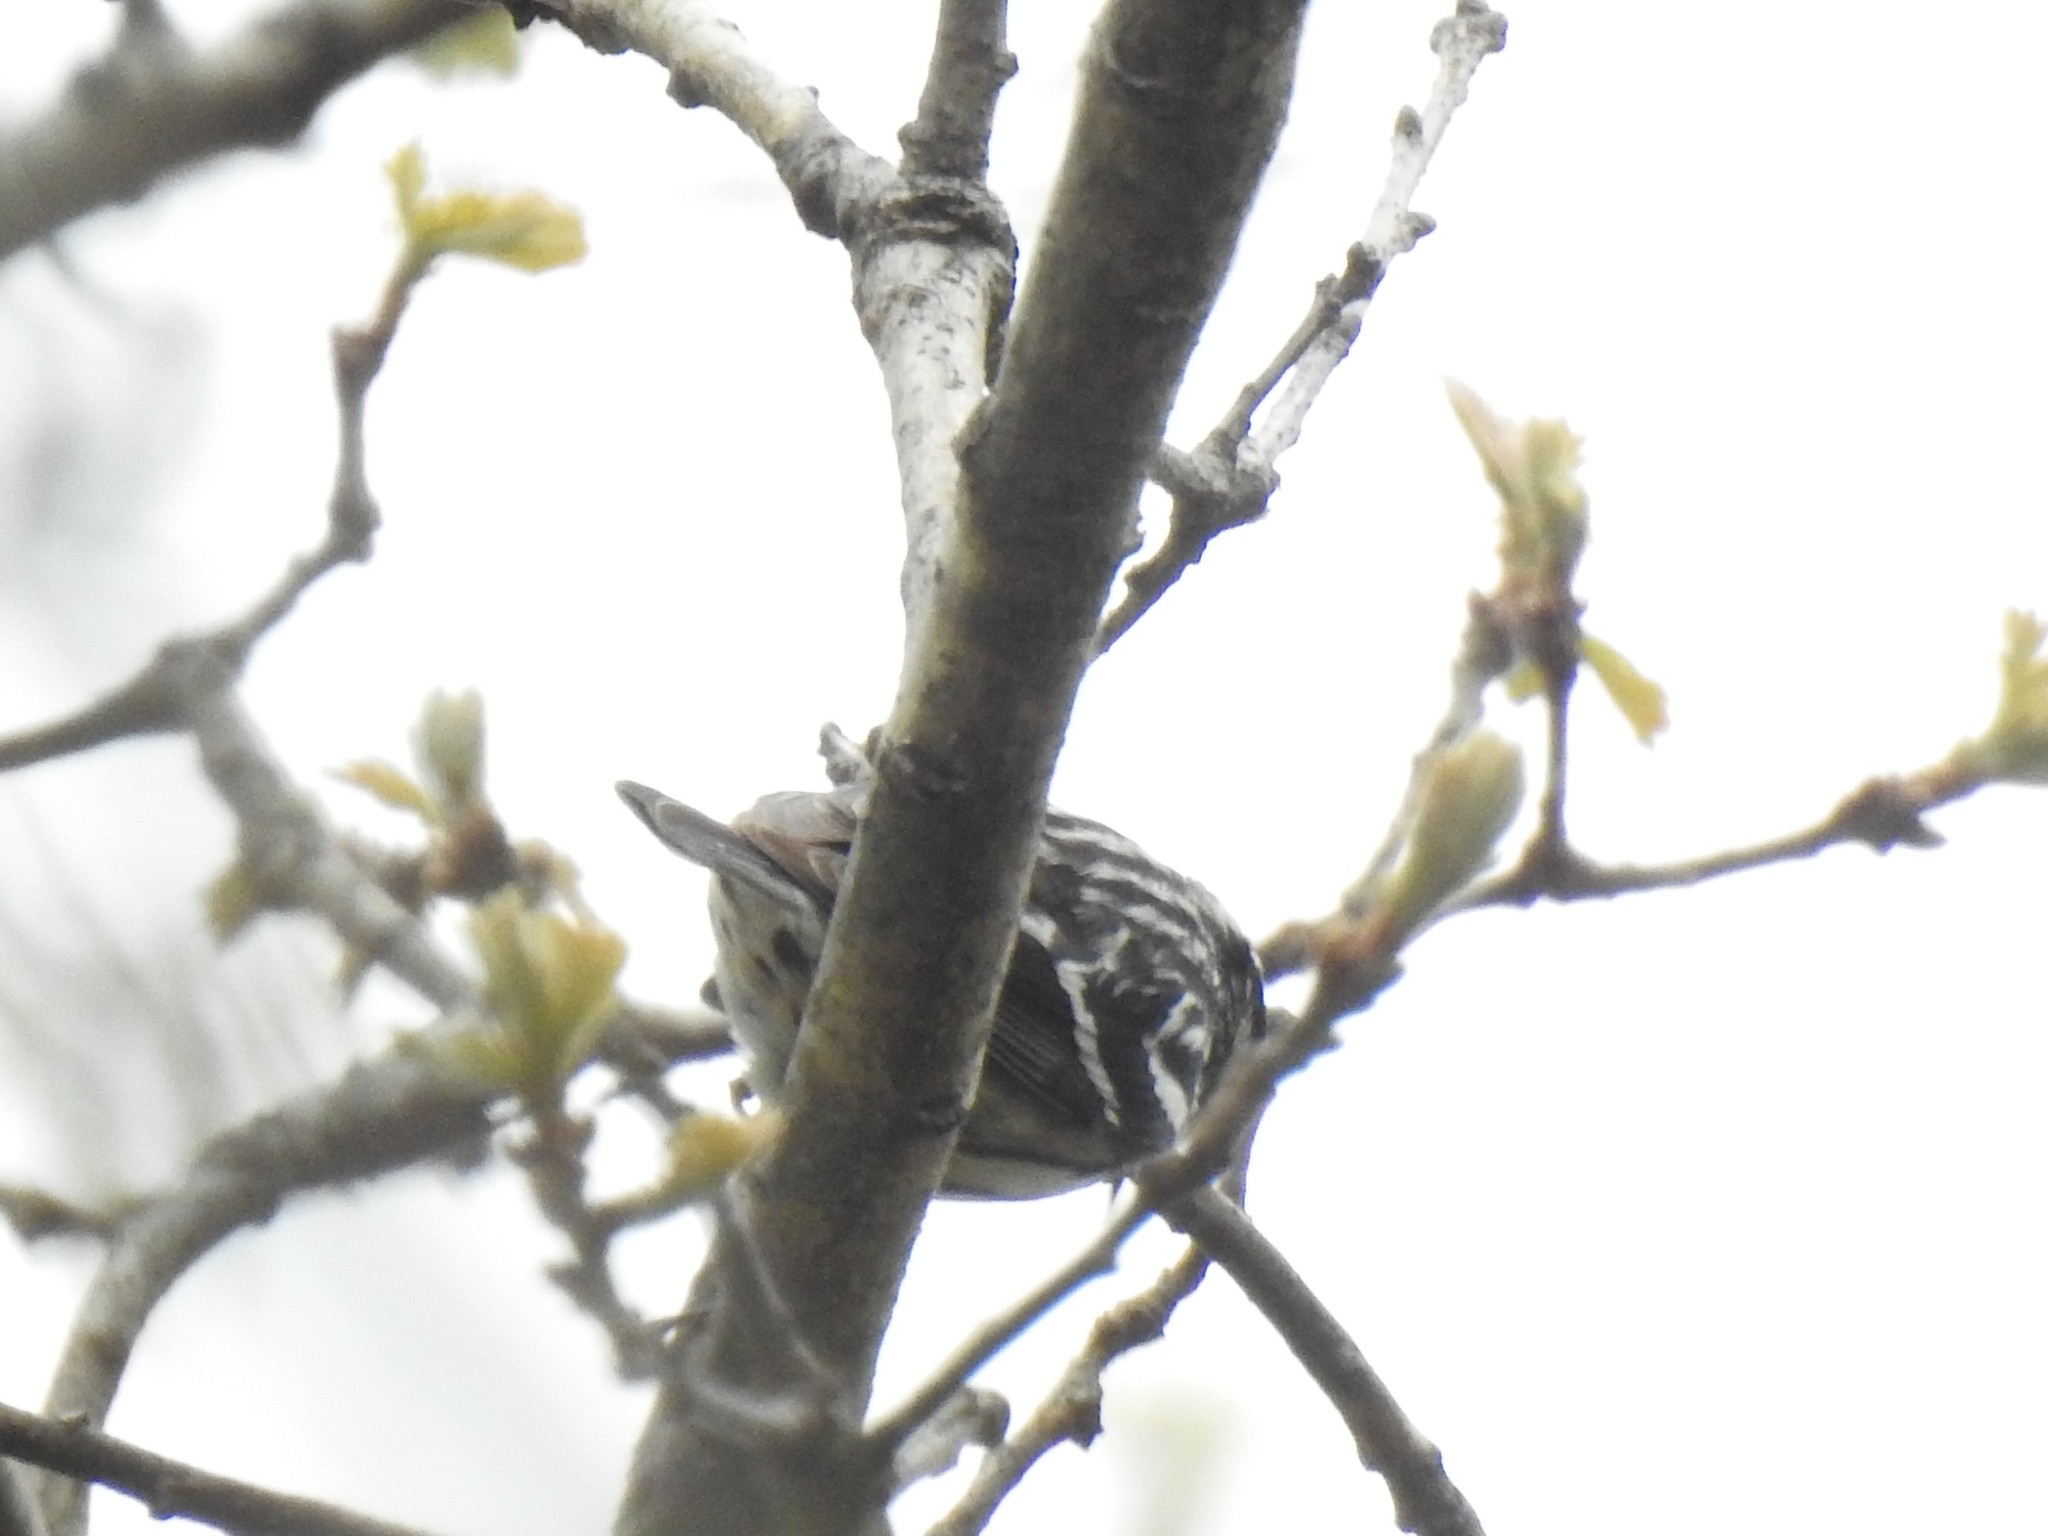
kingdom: Animalia
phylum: Chordata
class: Aves
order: Passeriformes
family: Parulidae
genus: Mniotilta
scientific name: Mniotilta varia
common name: Black-and-white warbler
